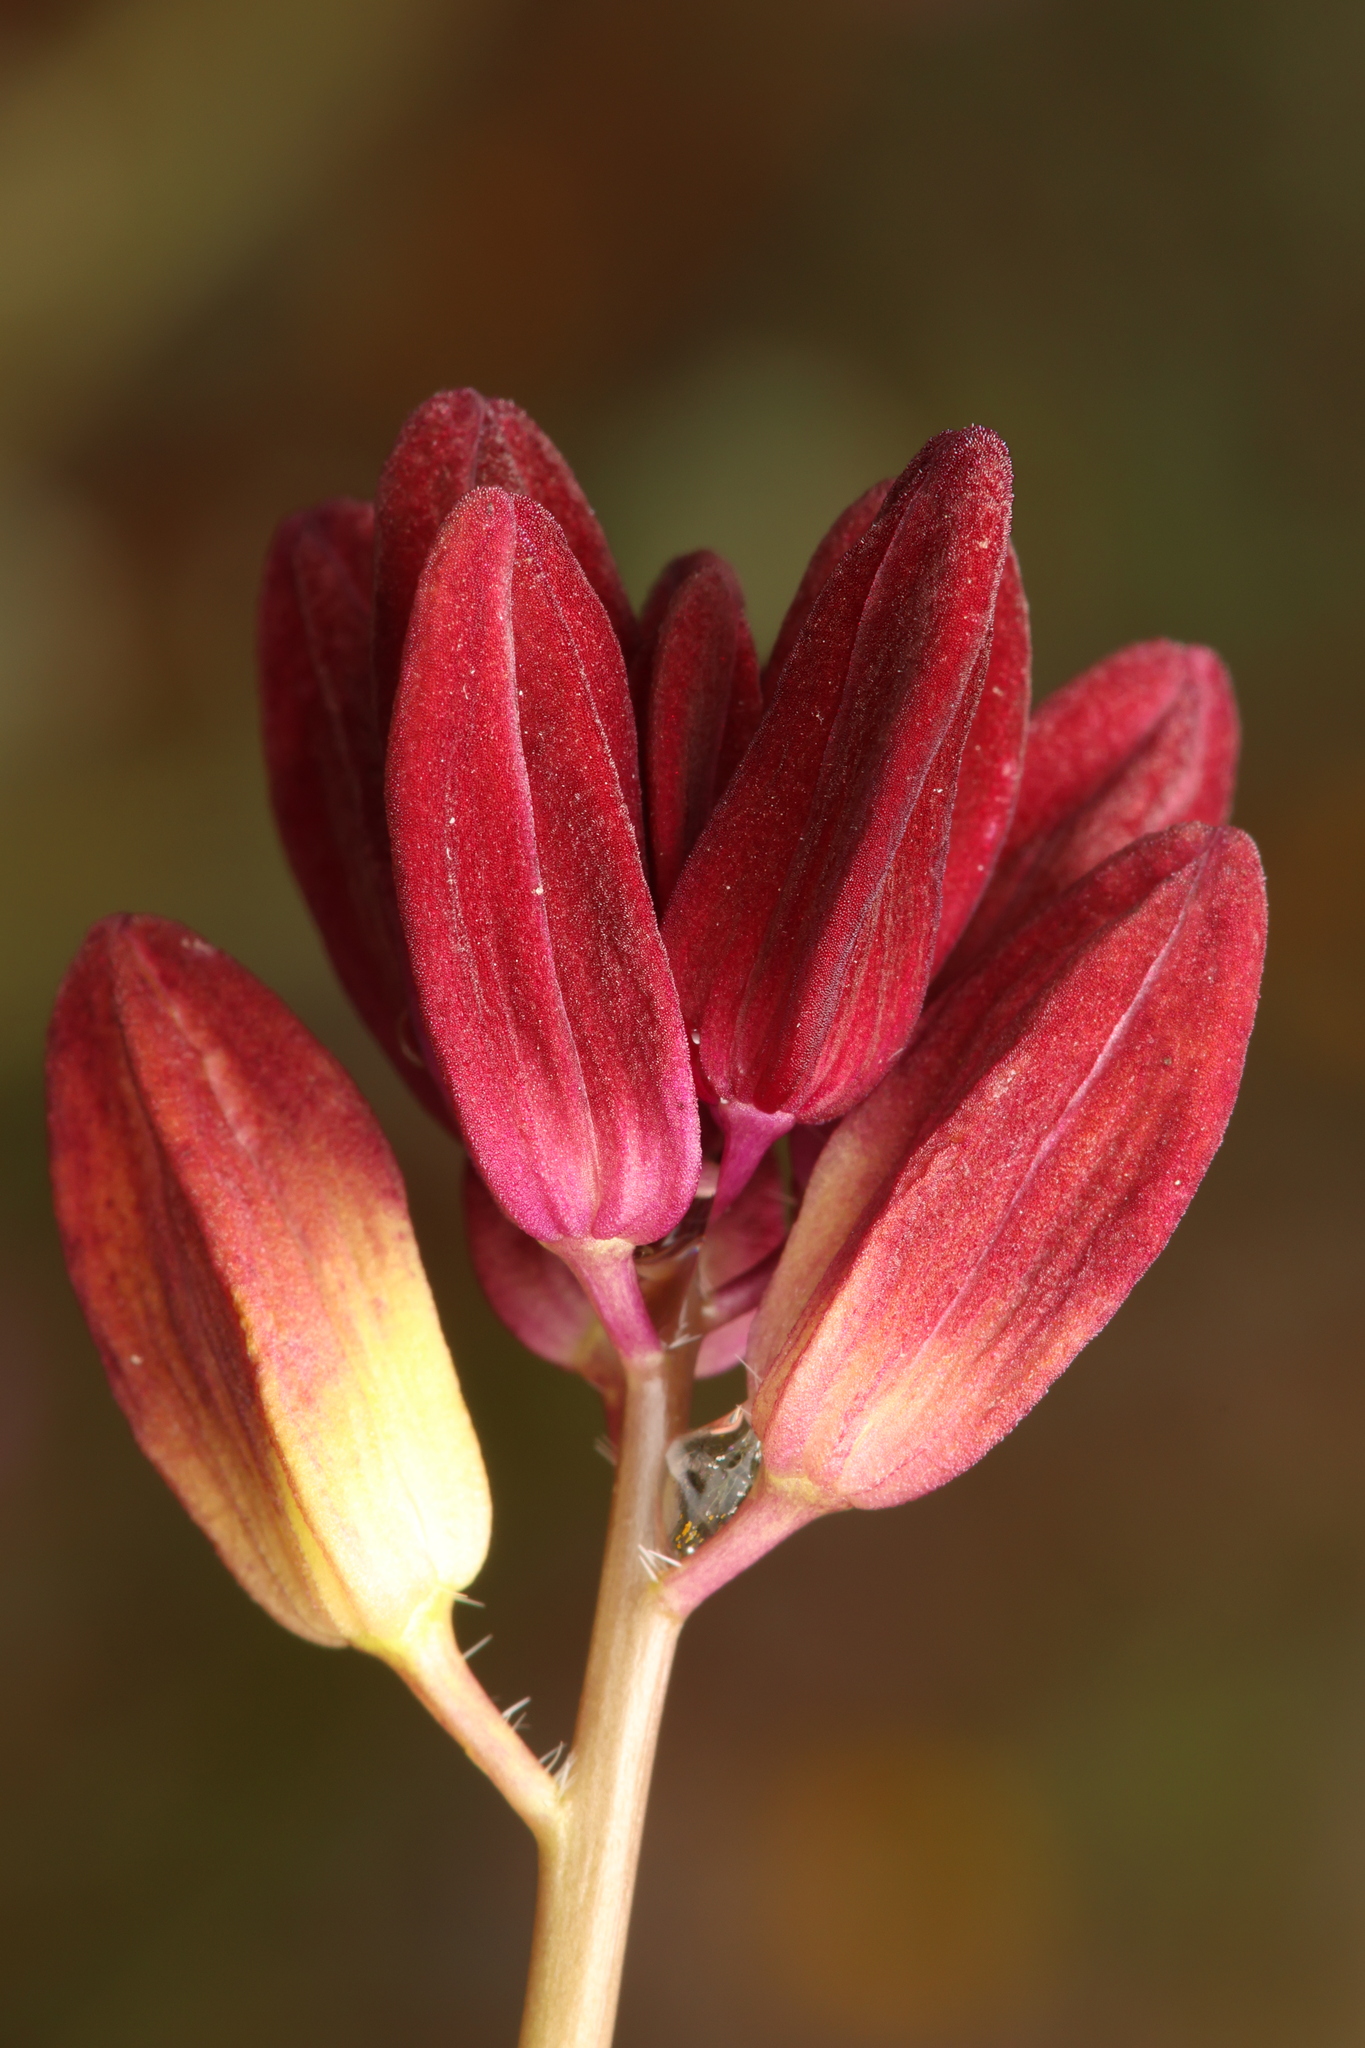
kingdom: Plantae
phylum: Tracheophyta
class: Magnoliopsida
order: Brassicales
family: Brassicaceae
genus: Streptanthus
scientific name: Streptanthus coulteri
